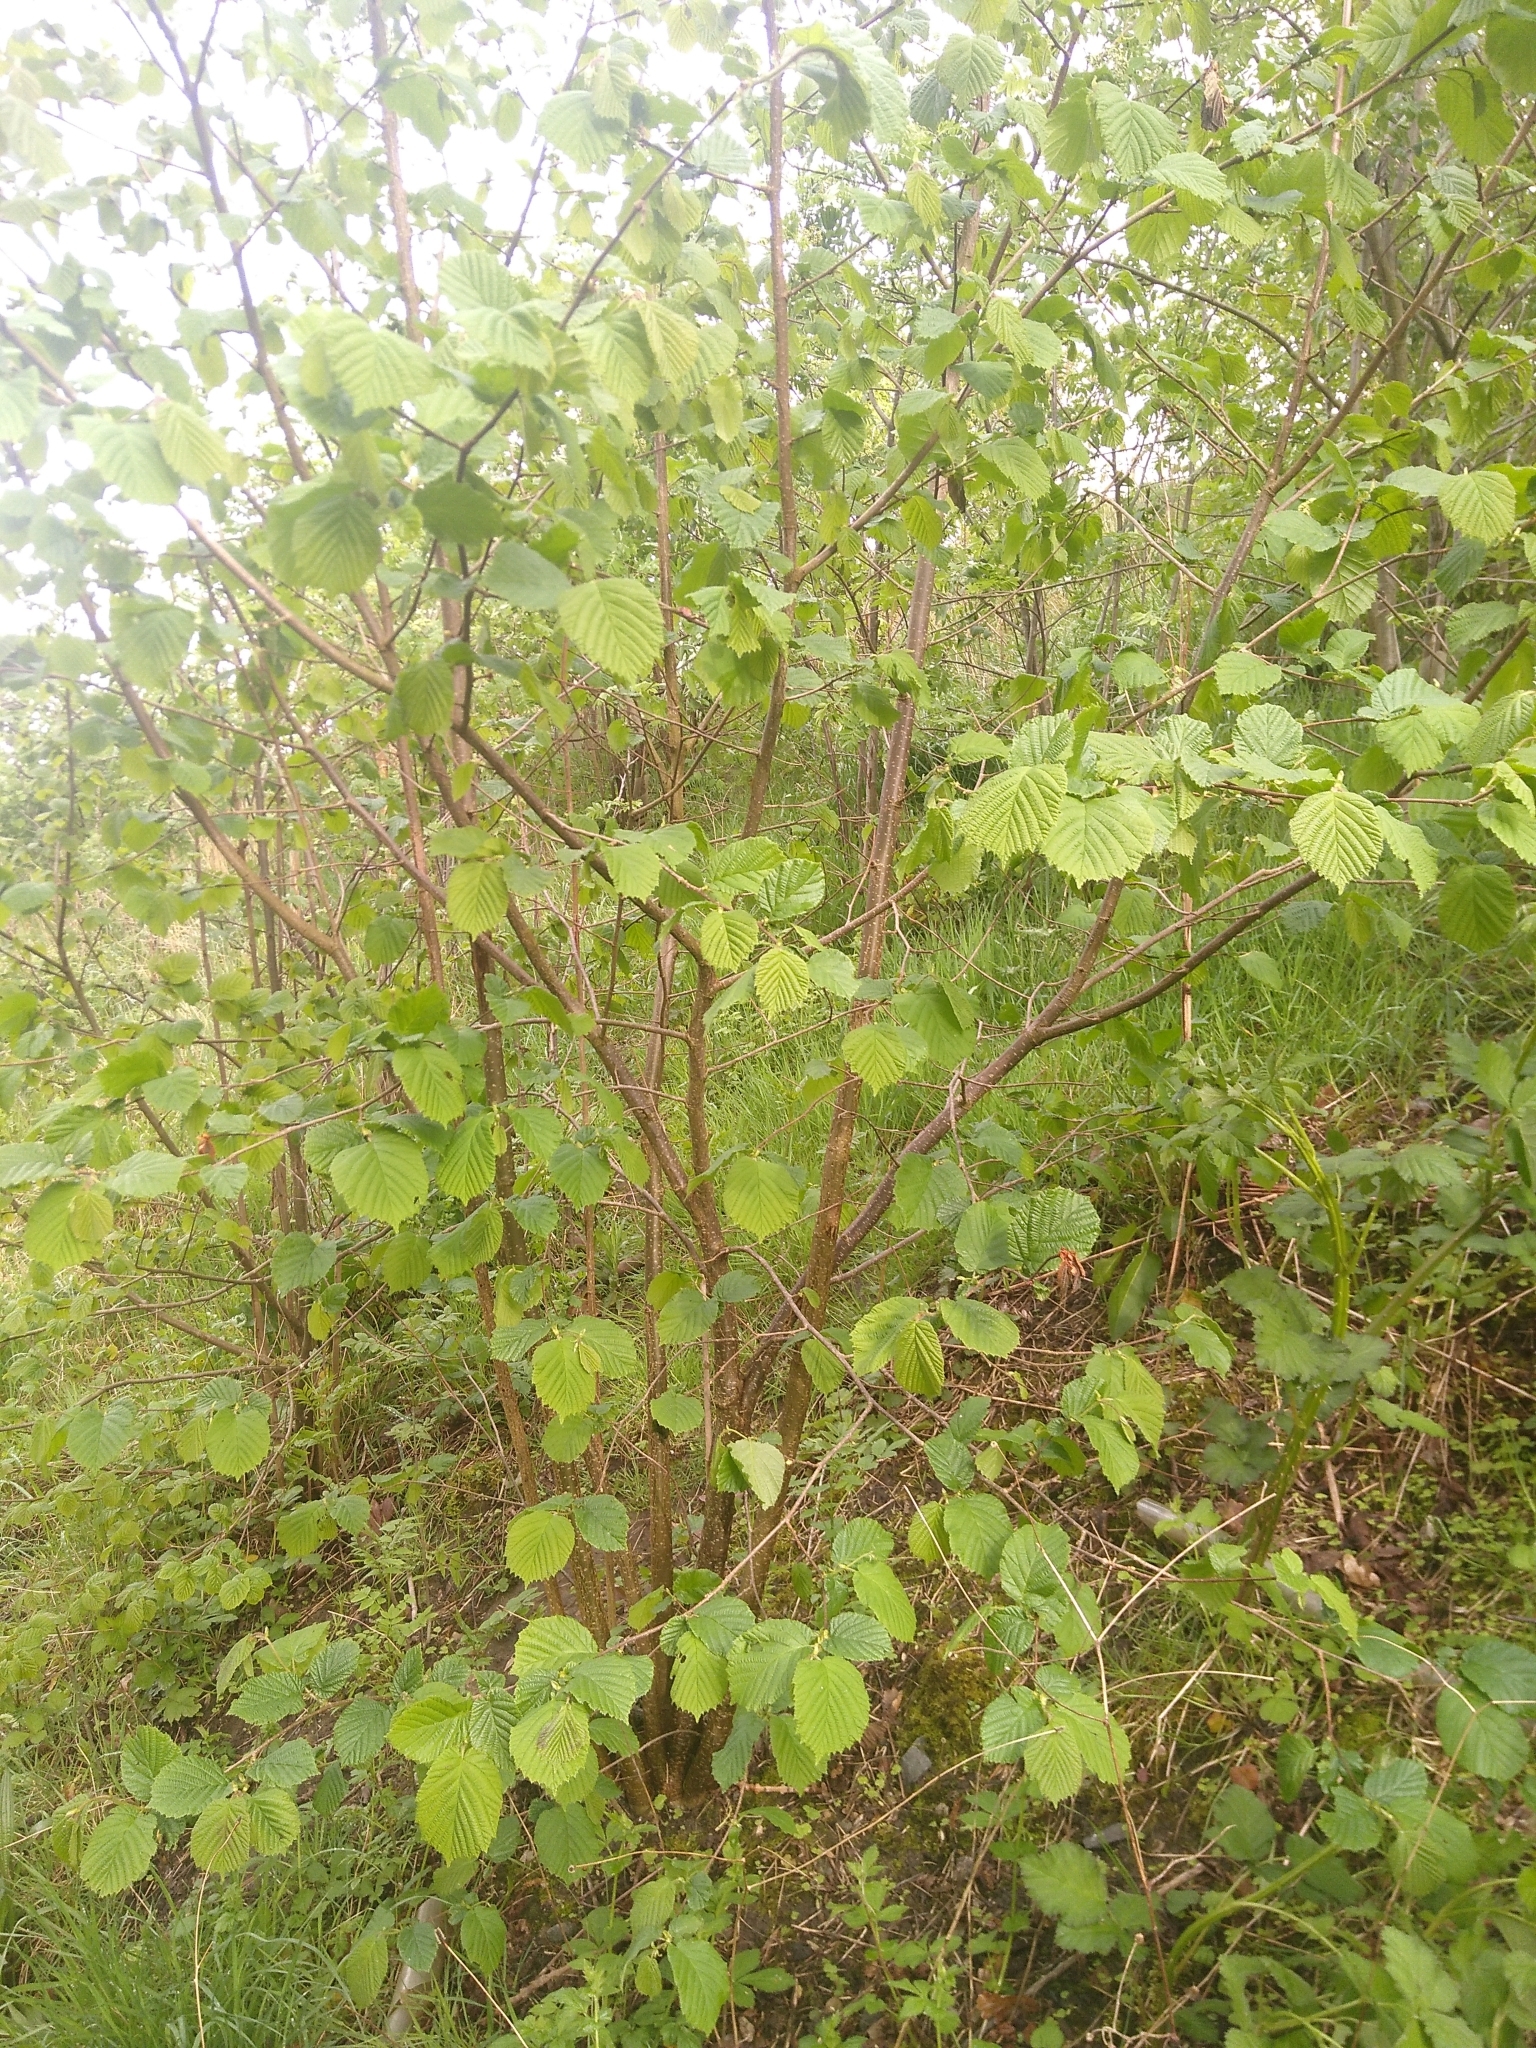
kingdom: Plantae
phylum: Tracheophyta
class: Magnoliopsida
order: Fagales
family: Betulaceae
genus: Corylus
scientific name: Corylus avellana
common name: European hazel
